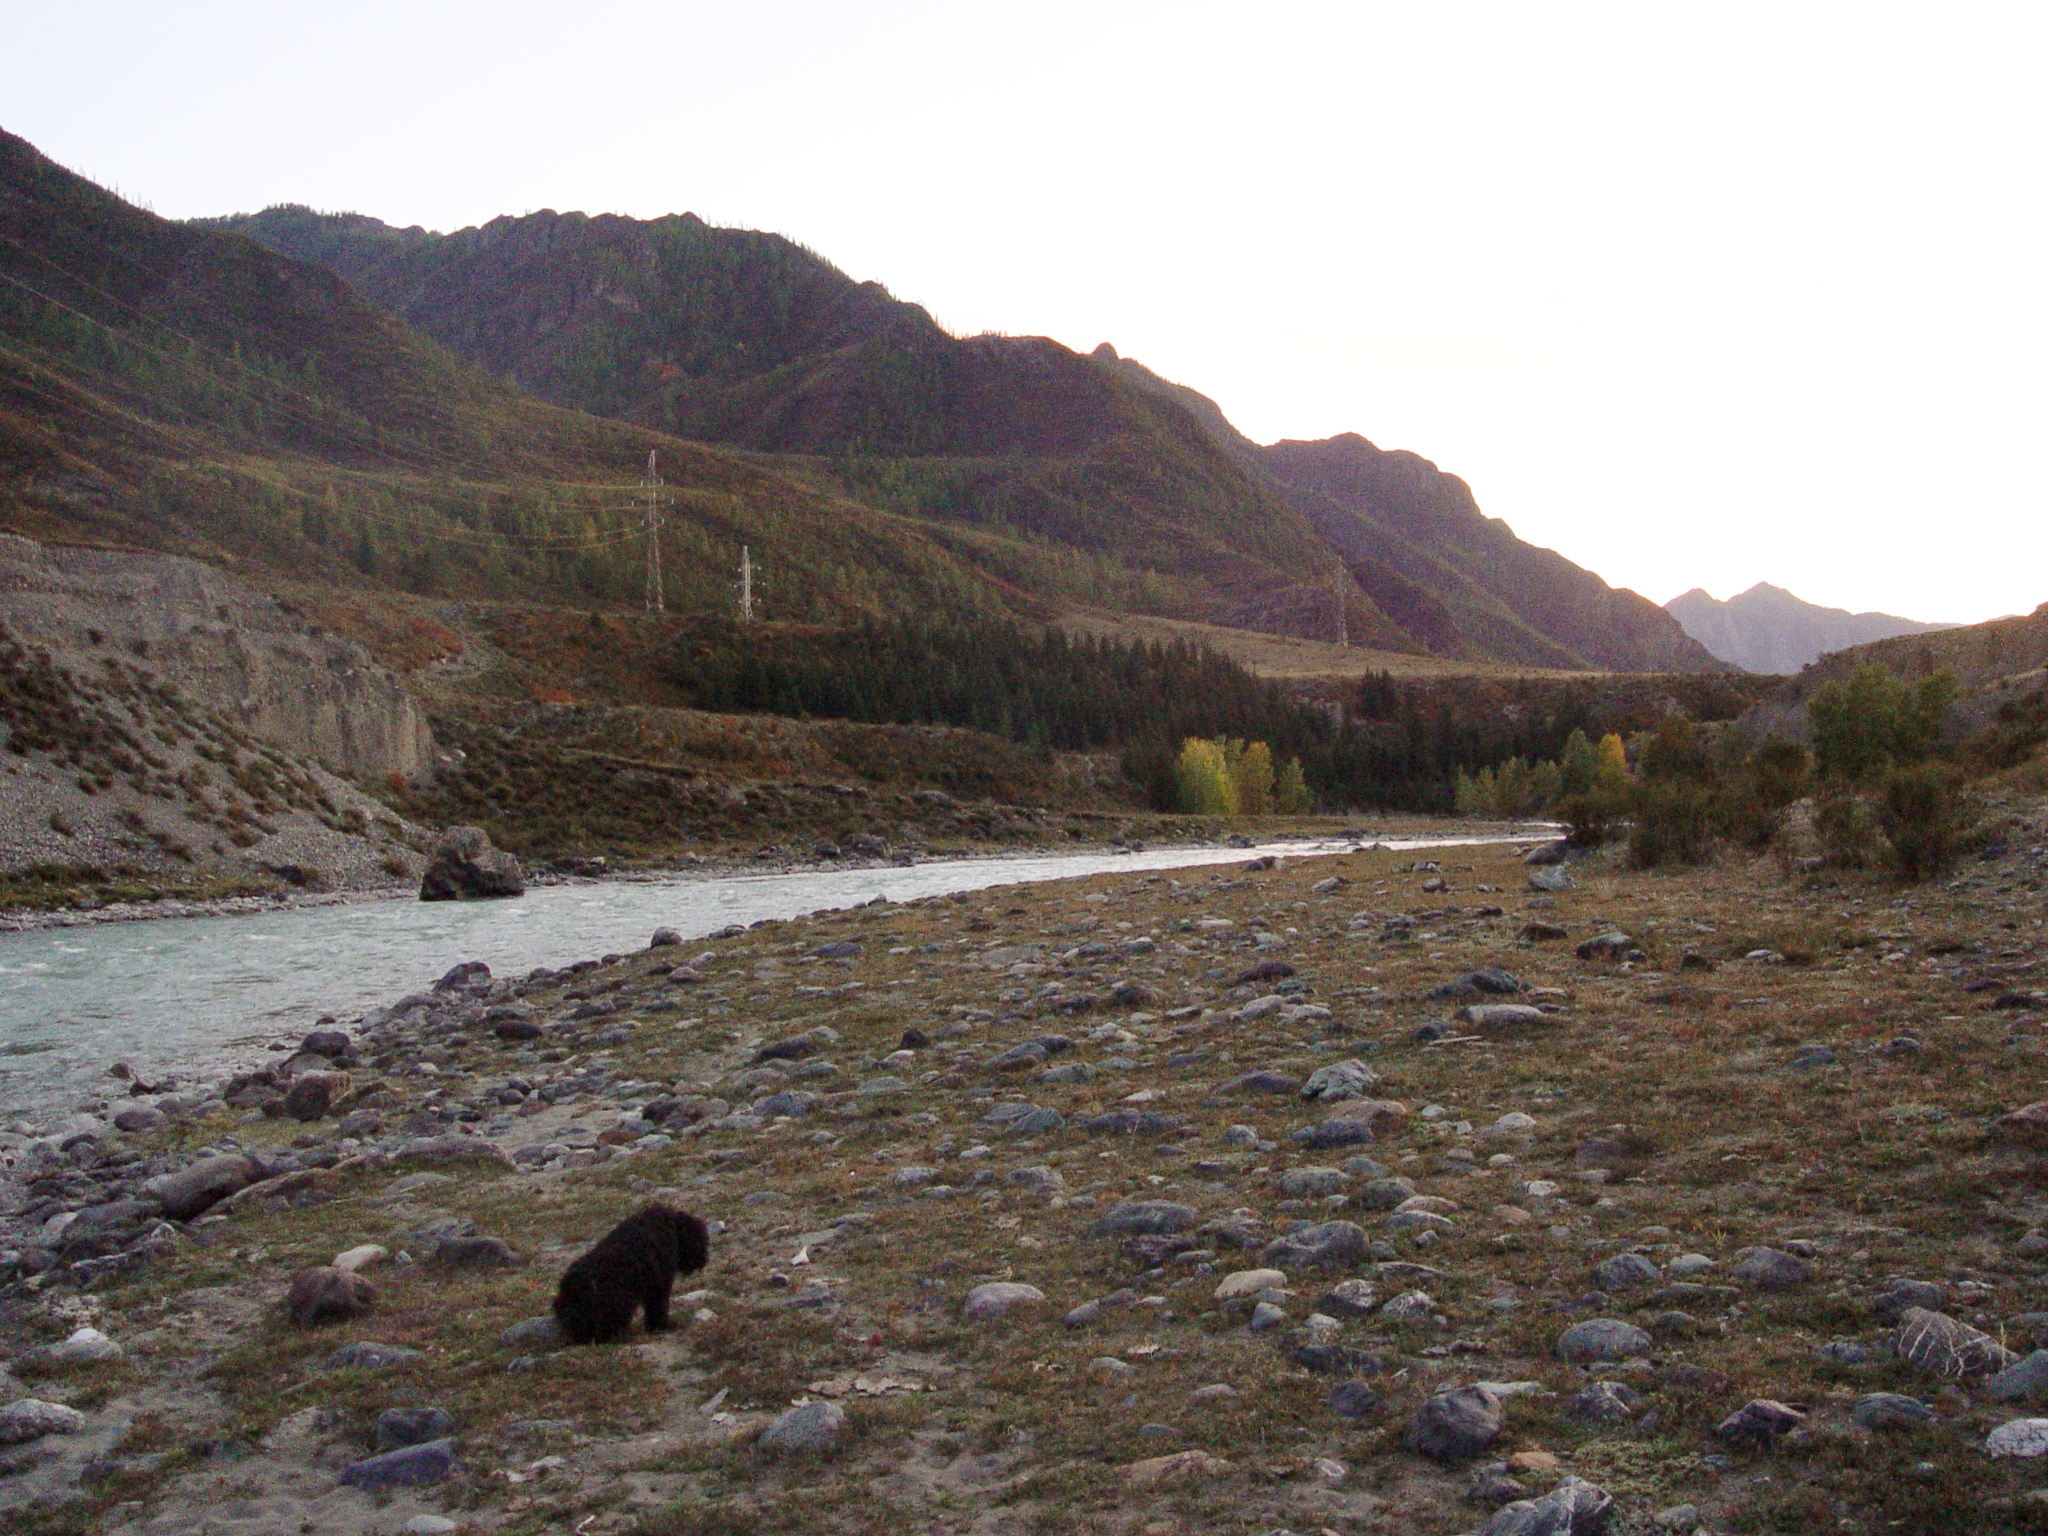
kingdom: Plantae
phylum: Tracheophyta
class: Magnoliopsida
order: Malpighiales
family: Salicaceae
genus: Populus
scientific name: Populus laurifolia
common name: Laurel-leaf poplar
